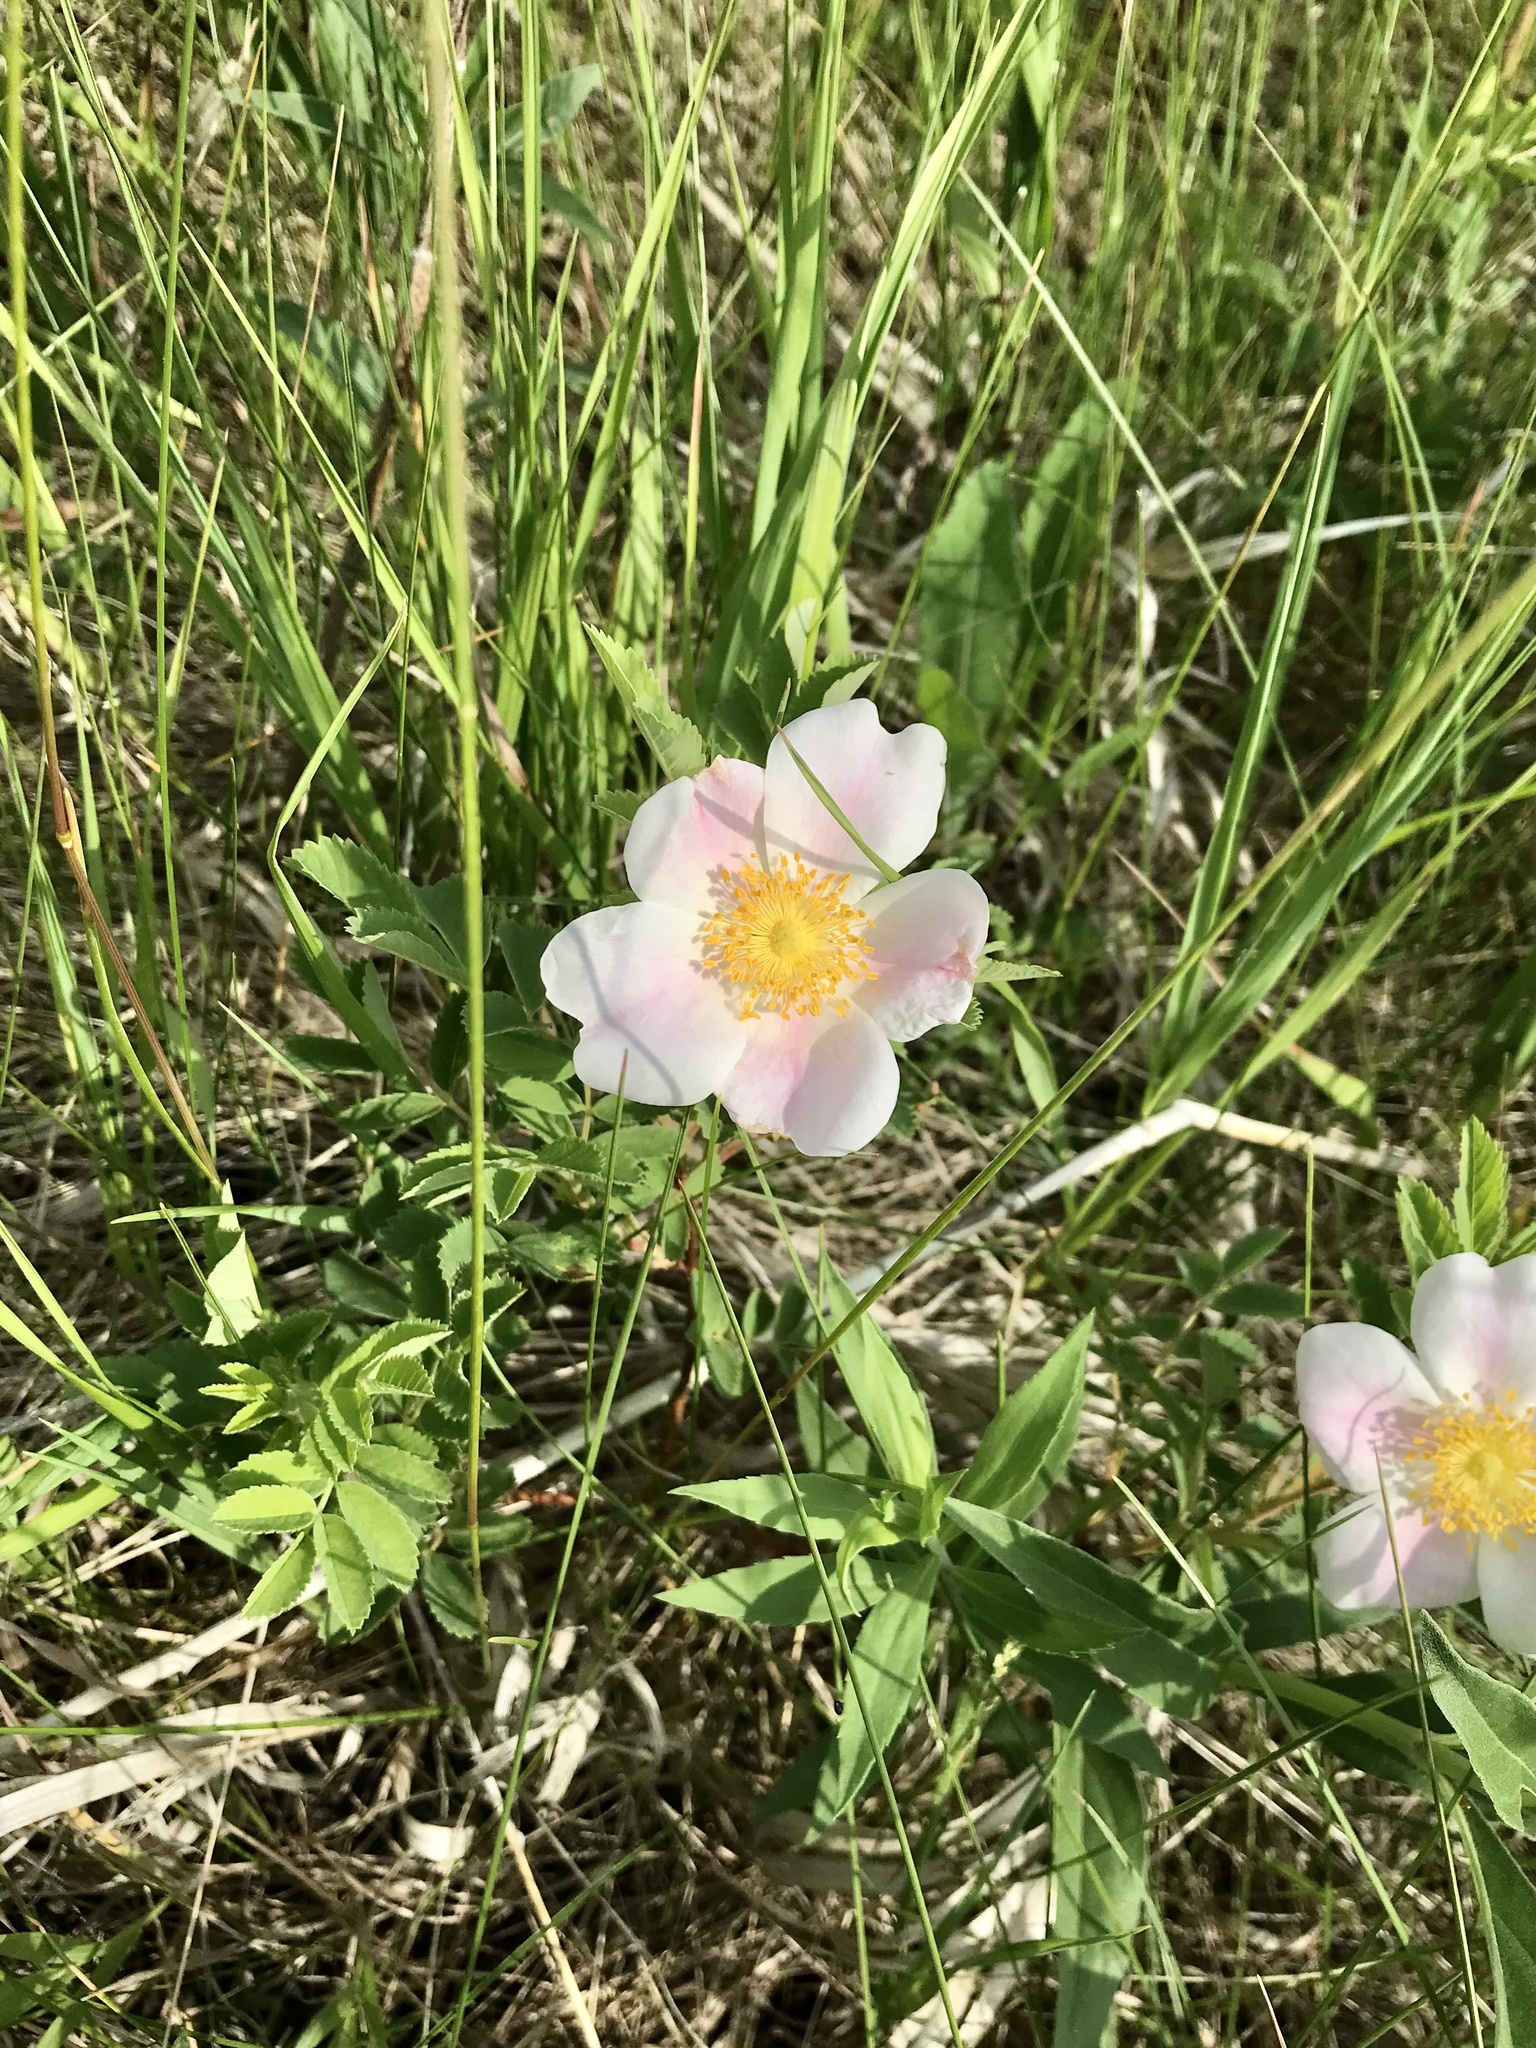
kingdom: Plantae
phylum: Tracheophyta
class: Magnoliopsida
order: Rosales
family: Rosaceae
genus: Rosa
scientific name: Rosa arkansana
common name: Prairie rose
